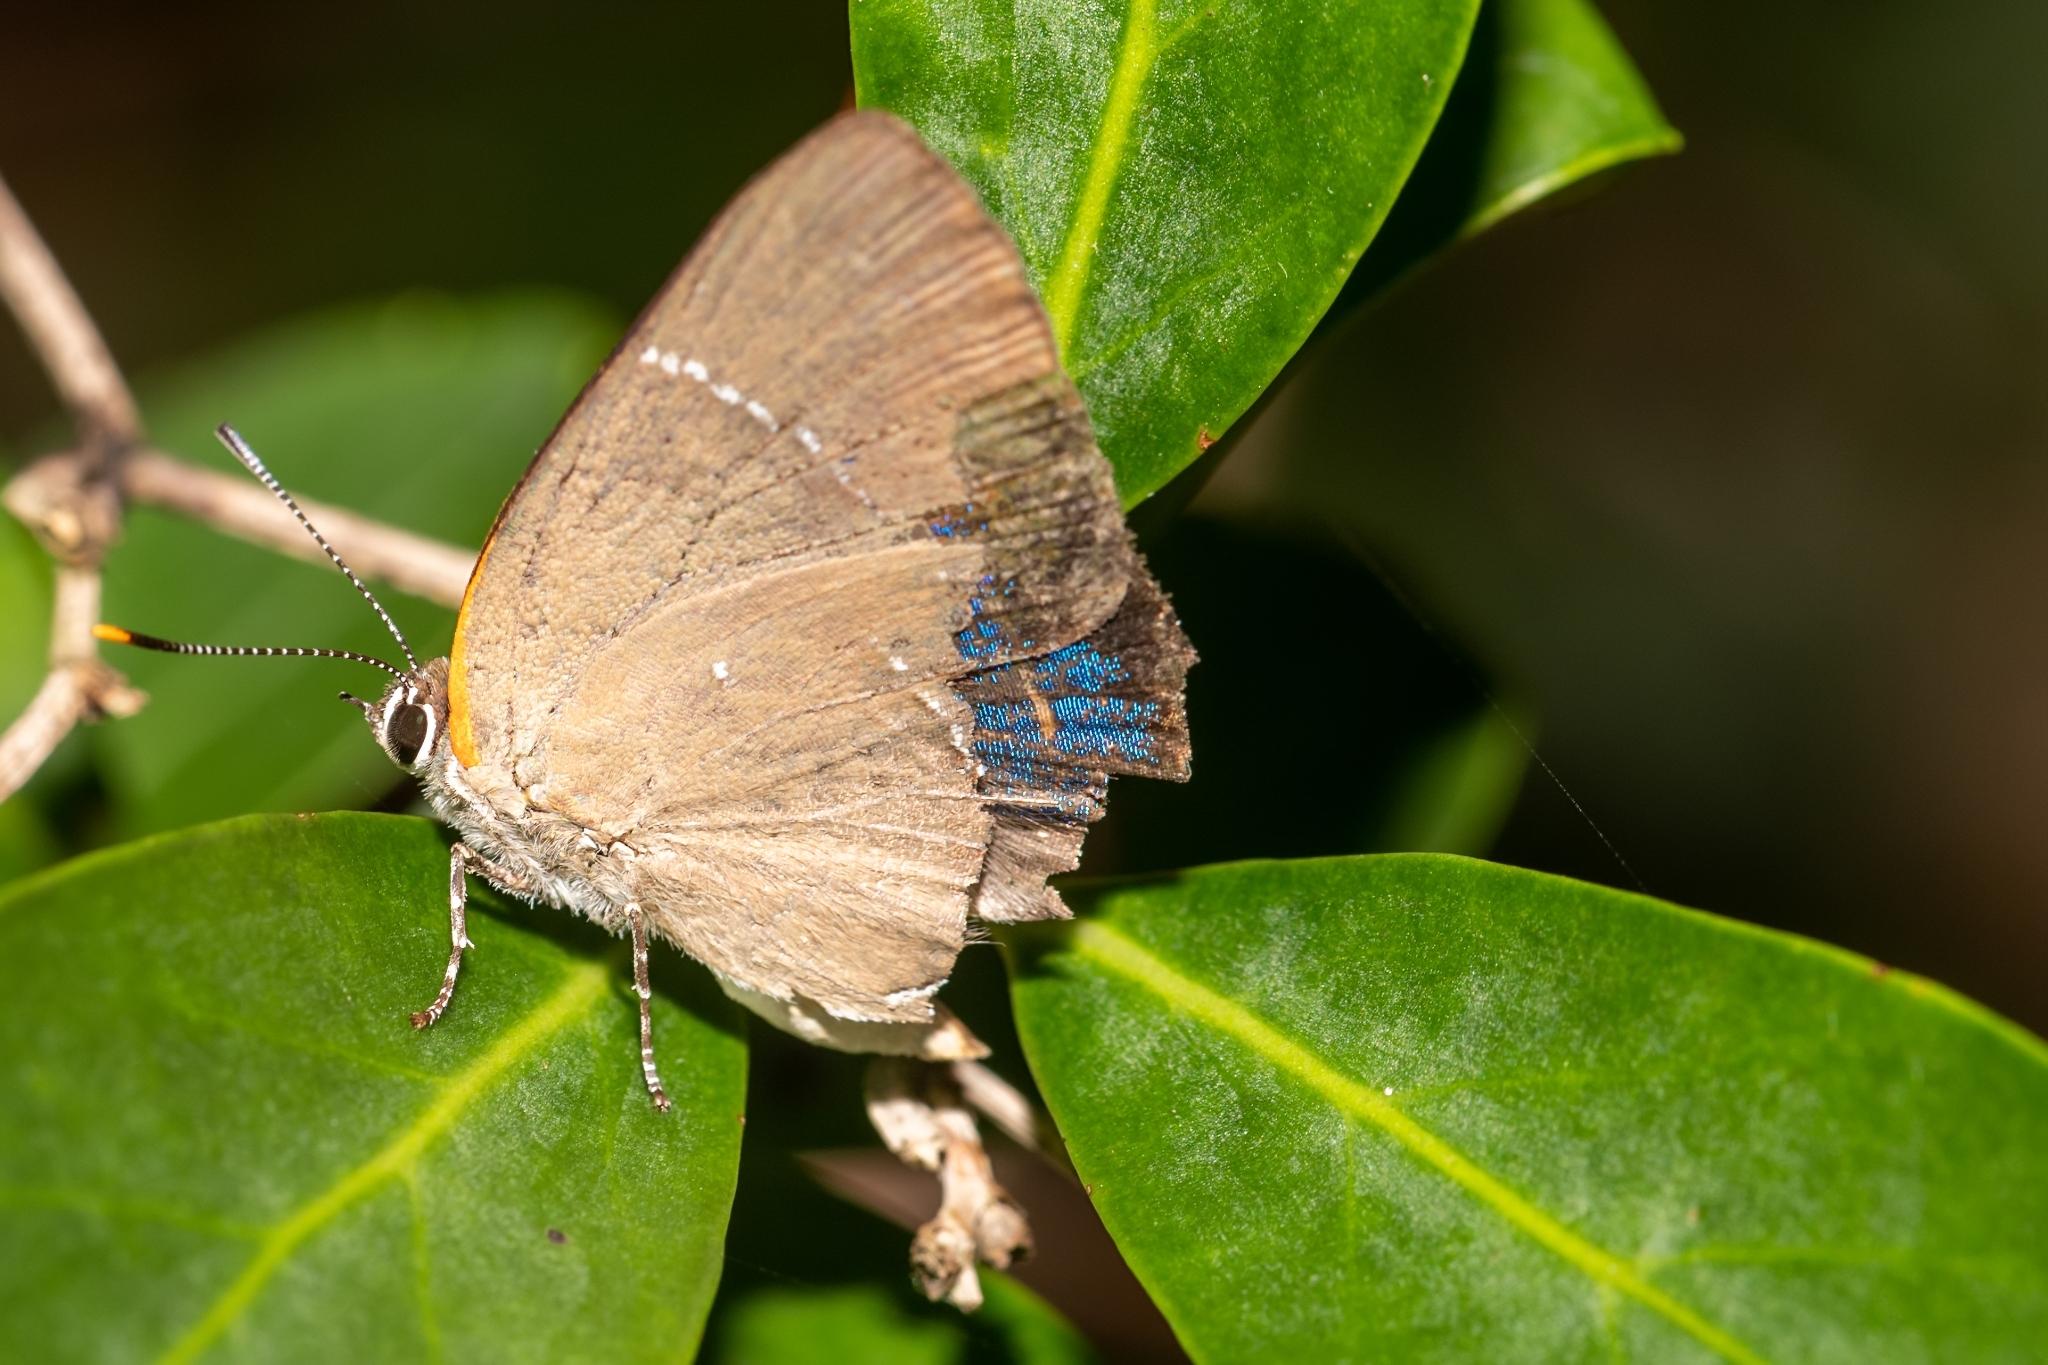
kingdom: Animalia
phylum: Arthropoda
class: Insecta
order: Lepidoptera
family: Lycaenidae
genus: Parrhasius
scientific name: Parrhasius m-album
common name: White m hairstreak
